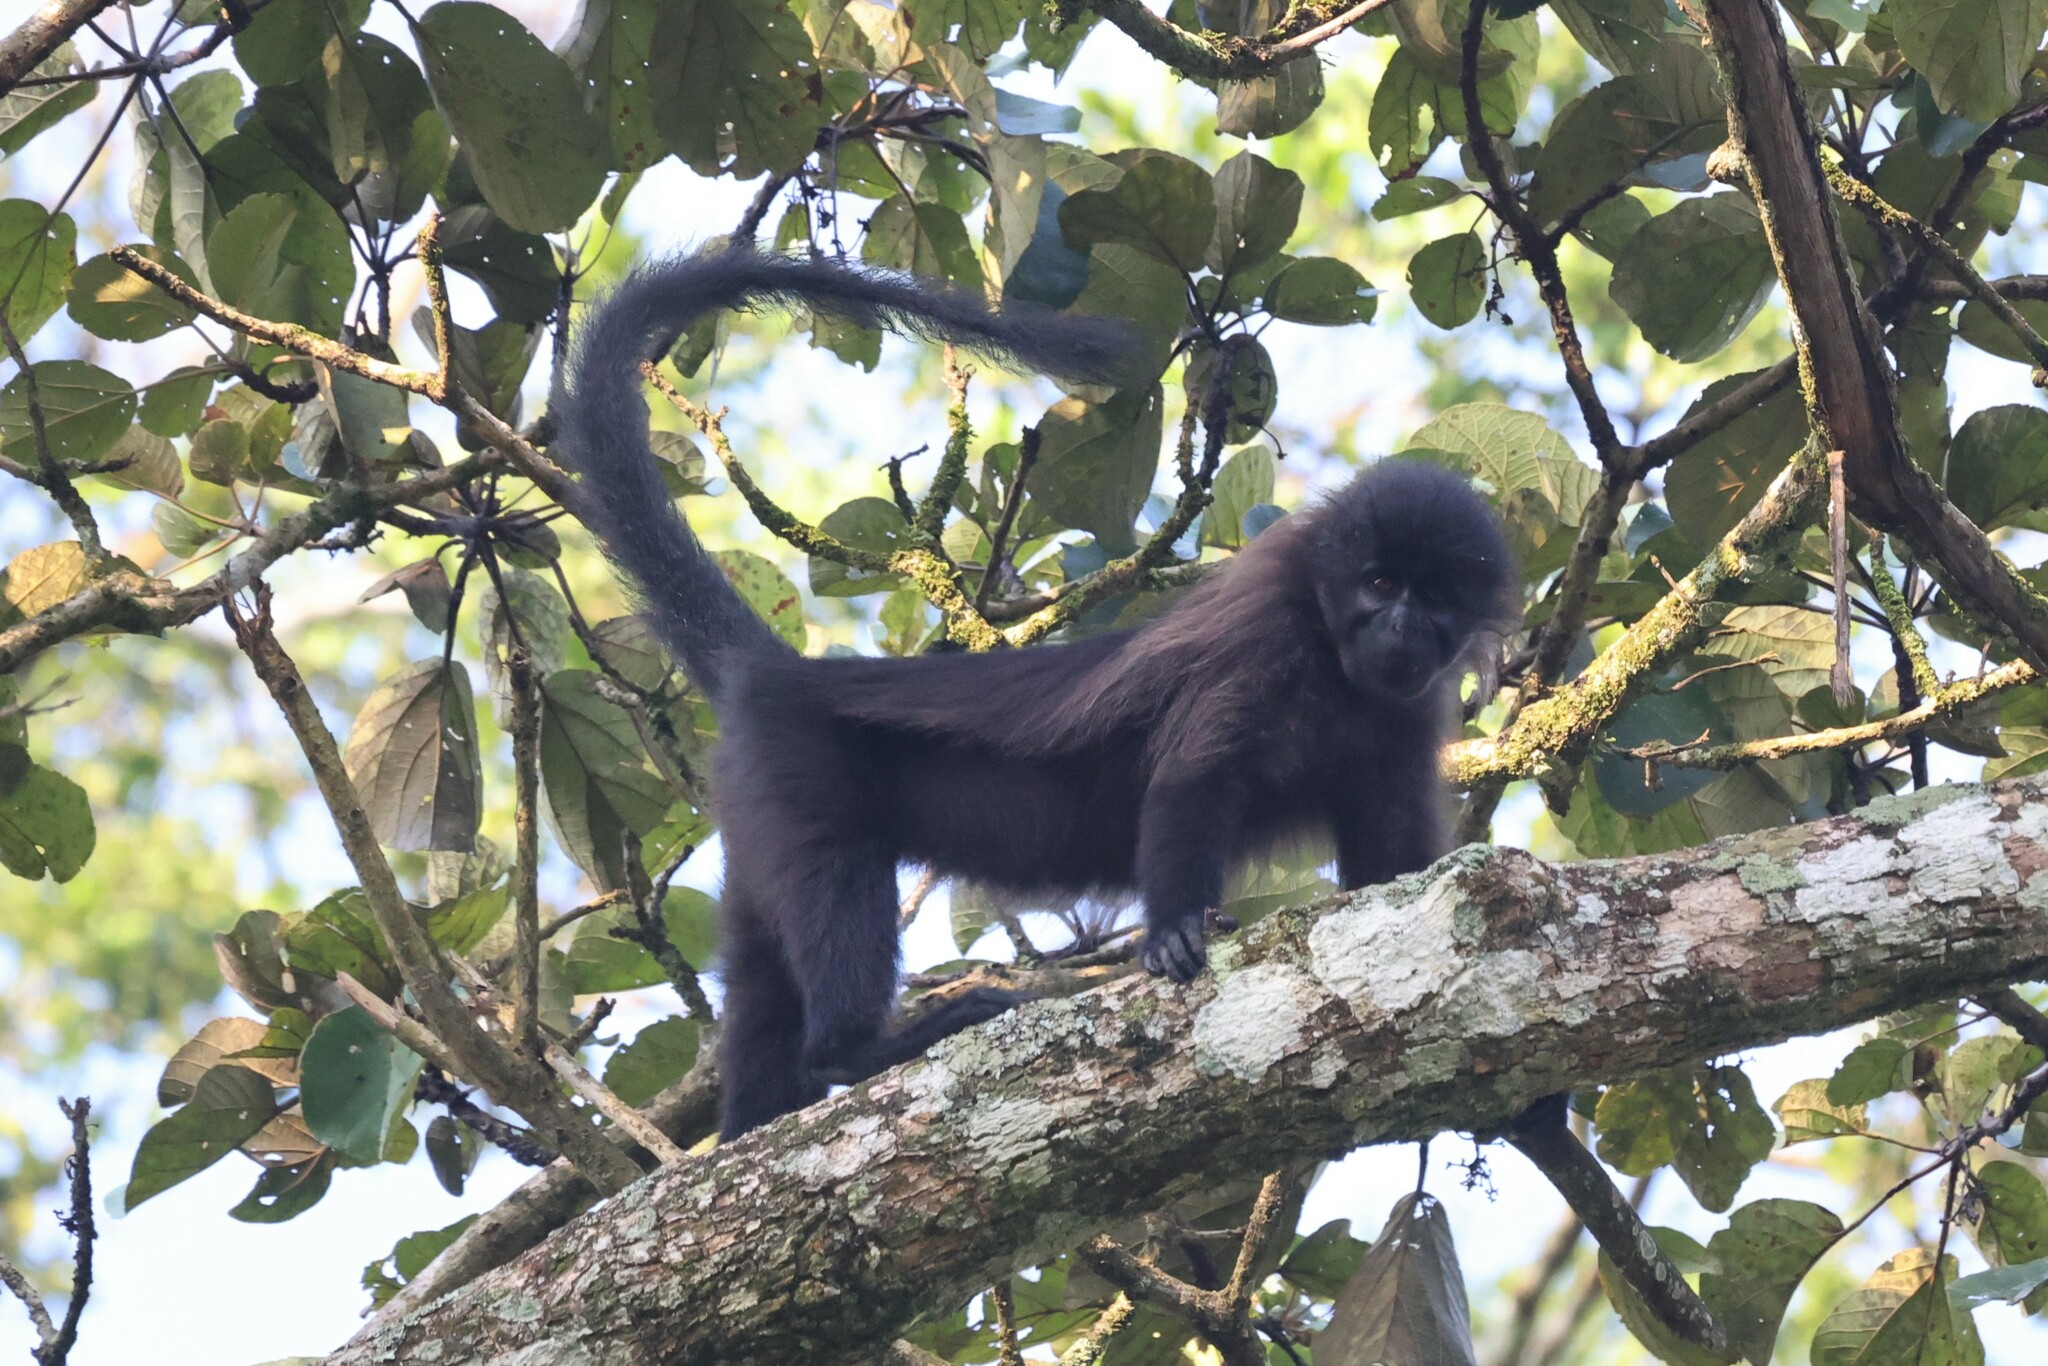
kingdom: Animalia
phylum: Chordata
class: Mammalia
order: Primates
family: Cercopithecidae
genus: Lophocebus
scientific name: Lophocebus albigena
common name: Gray-cheeked mangabey
